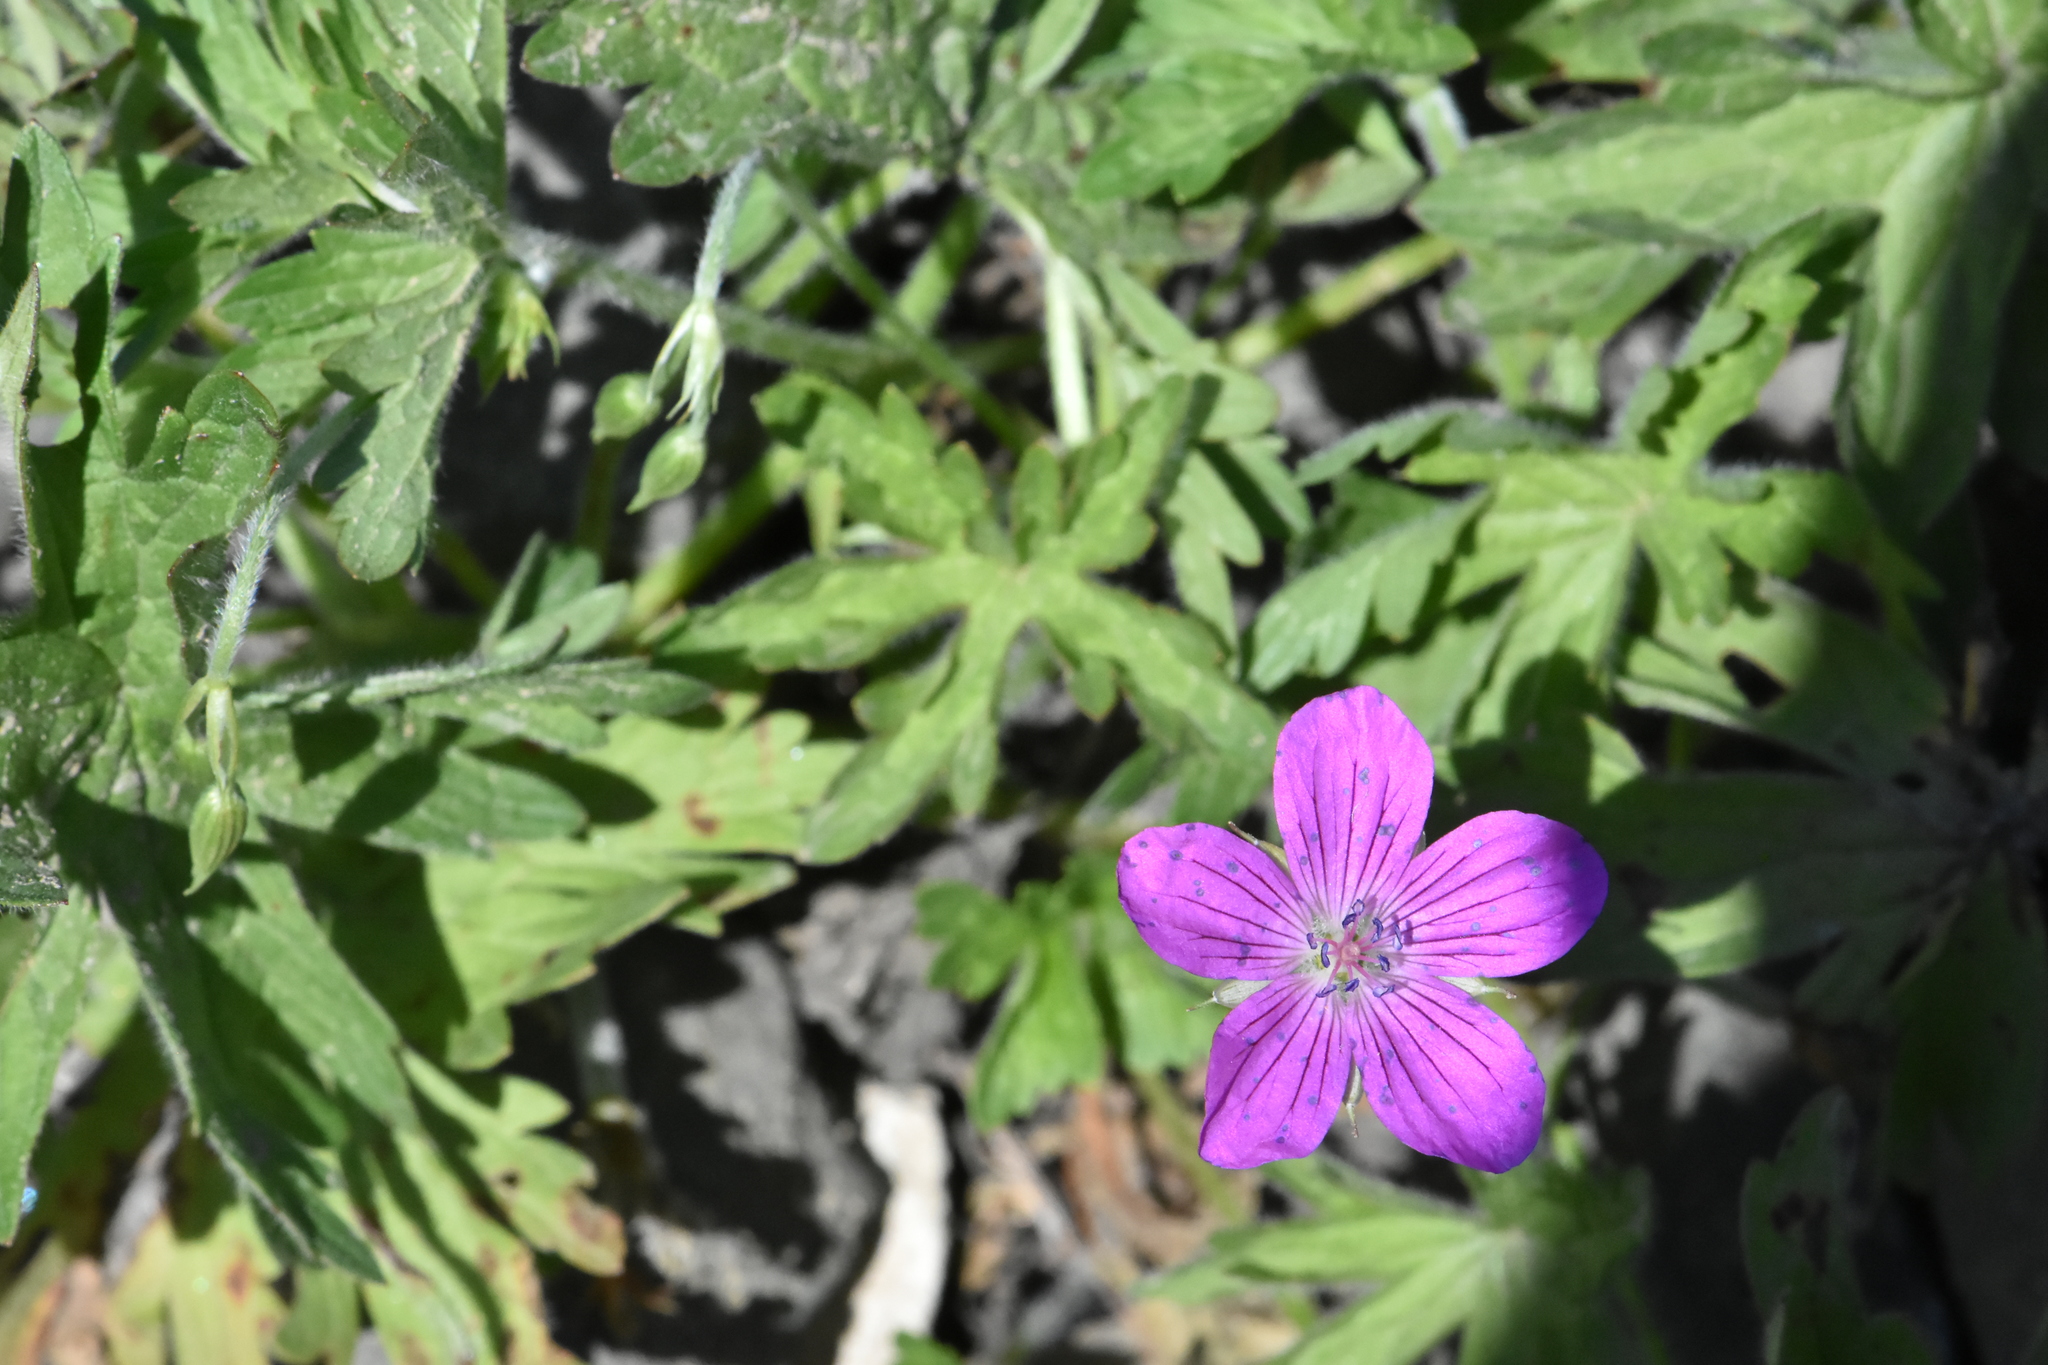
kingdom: Plantae
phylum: Tracheophyta
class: Magnoliopsida
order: Geraniales
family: Geraniaceae
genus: Geranium
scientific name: Geranium palustre
